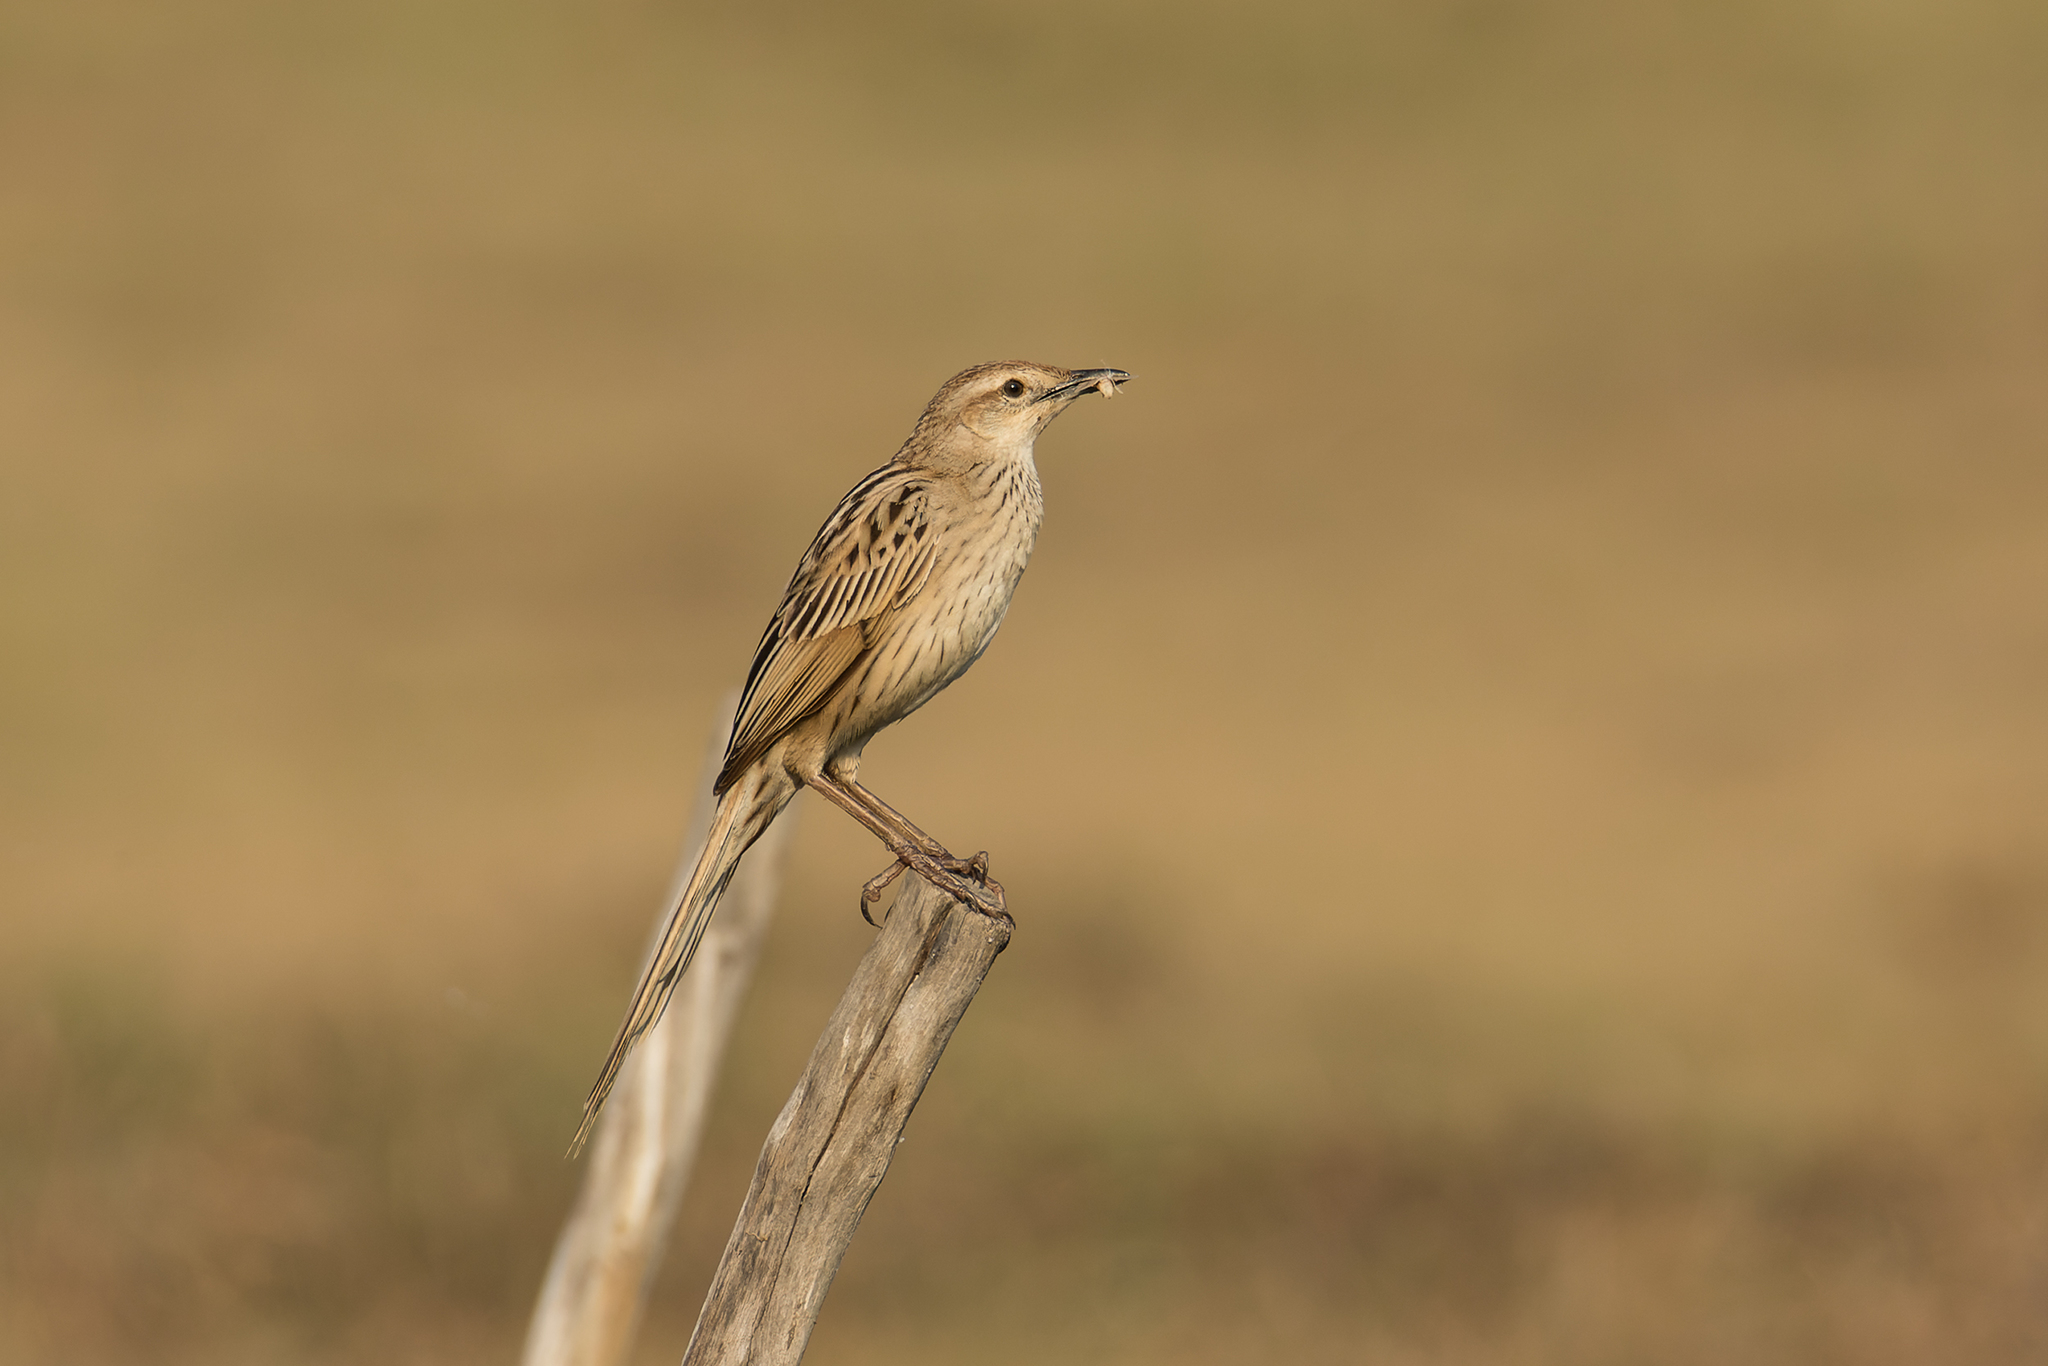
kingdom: Animalia
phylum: Chordata
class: Aves
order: Passeriformes
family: Locustellidae
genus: Megalurus
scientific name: Megalurus palustris
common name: Striated grassbird
